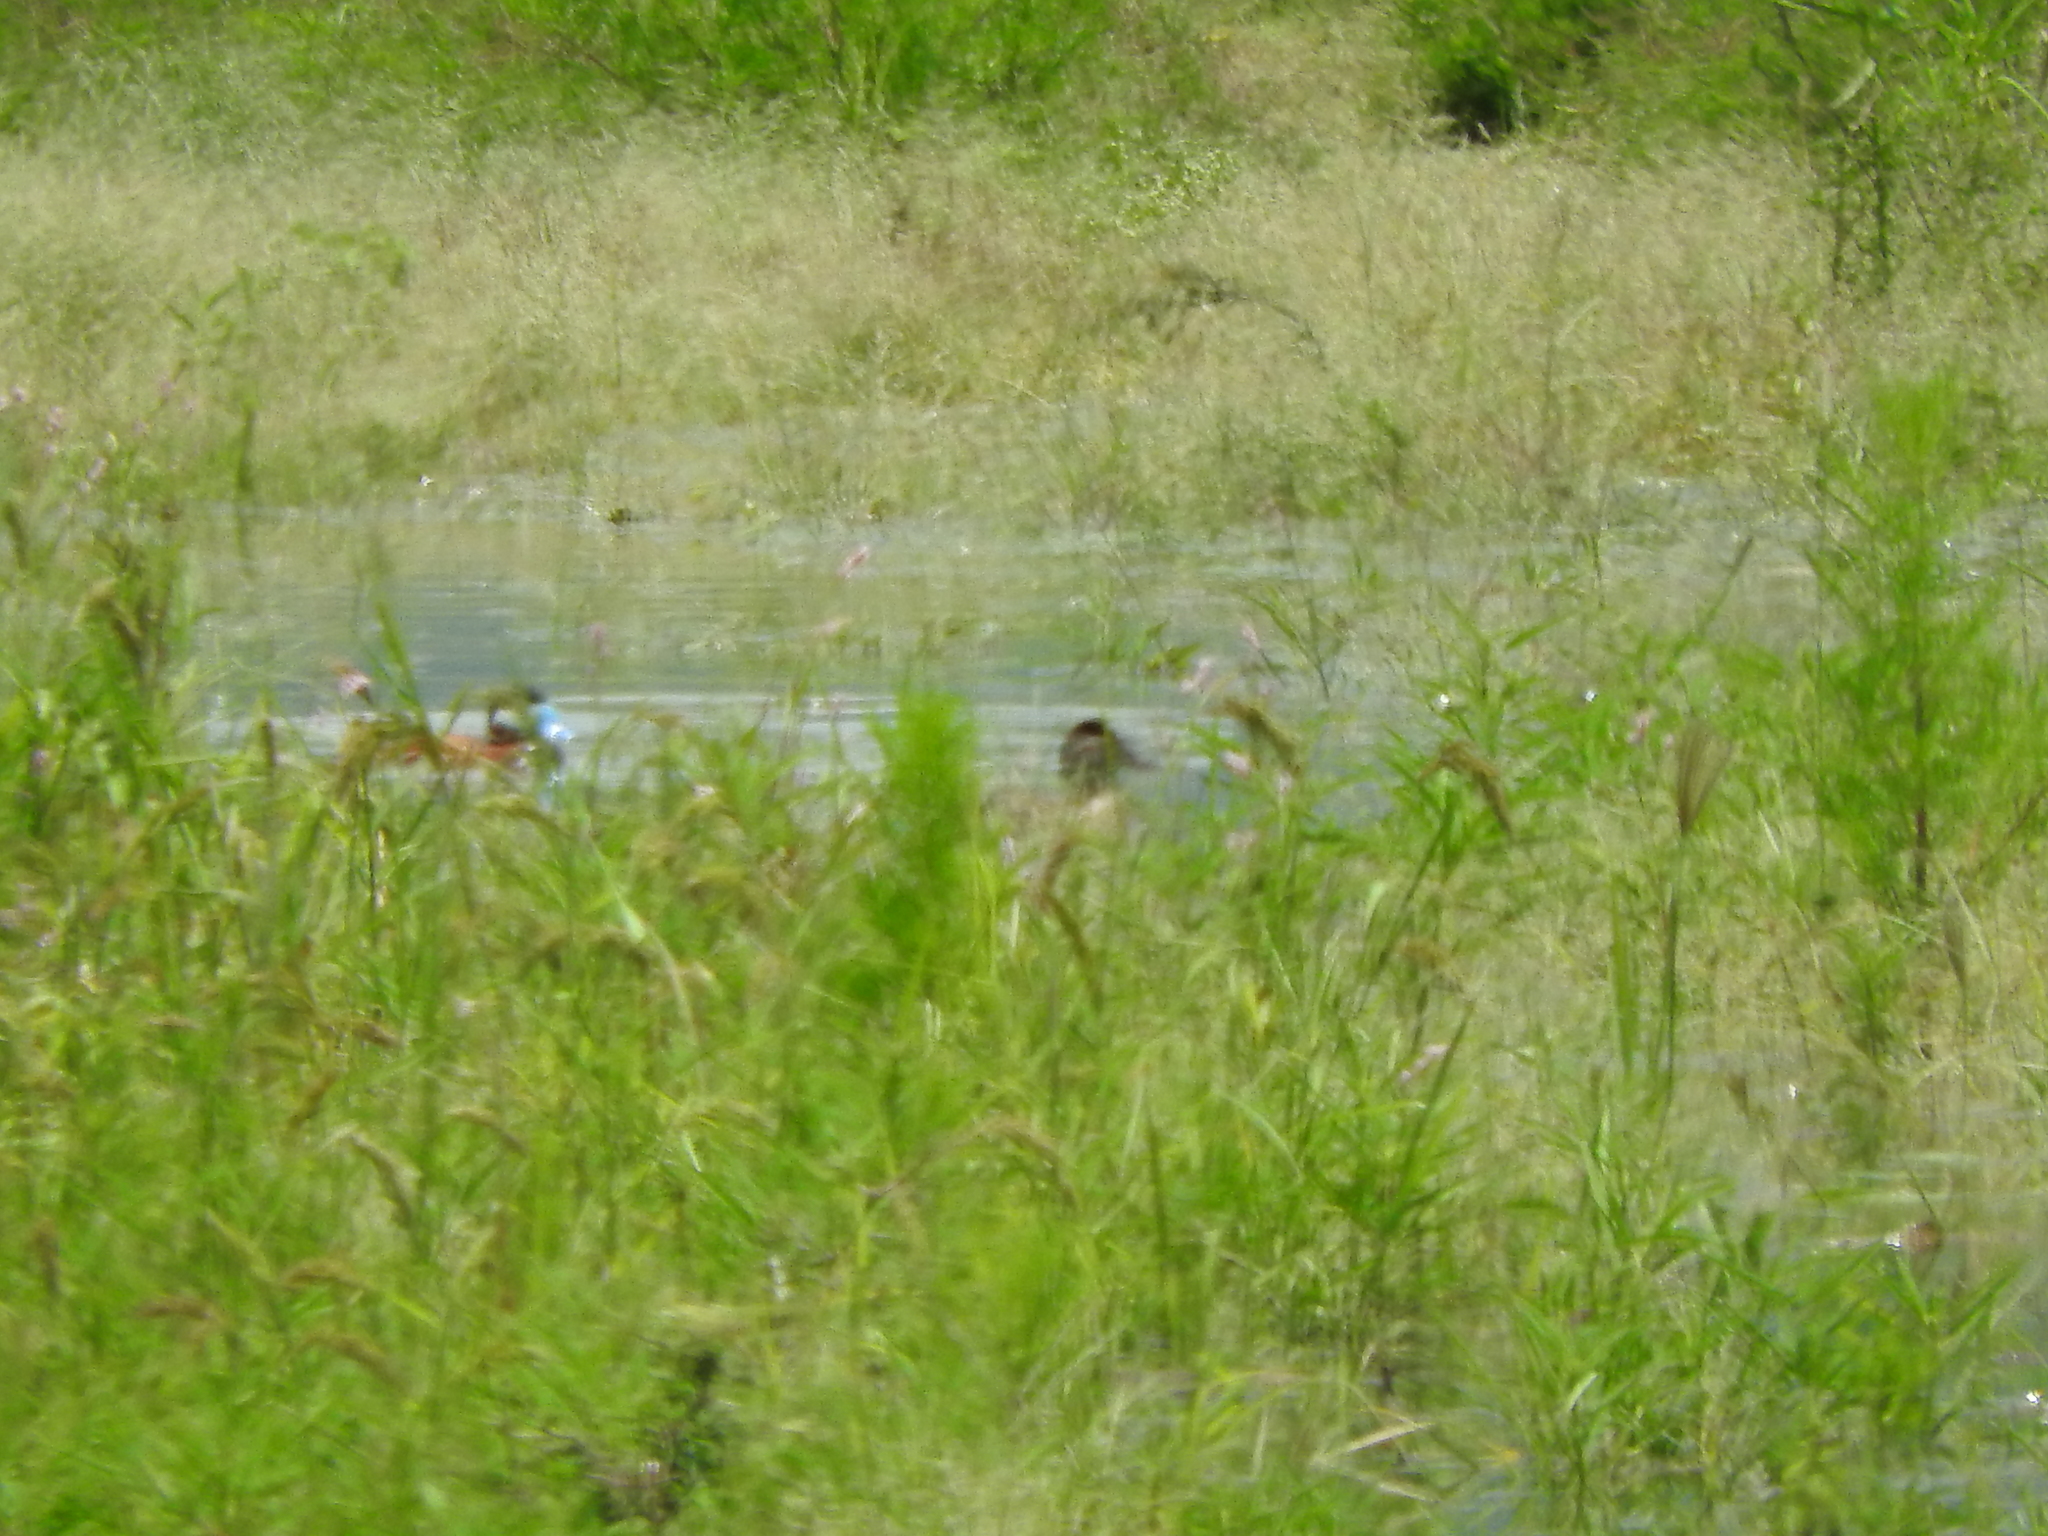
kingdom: Animalia
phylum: Chordata
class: Aves
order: Anseriformes
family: Anatidae
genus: Oxyura
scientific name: Oxyura jamaicensis
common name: Ruddy duck
